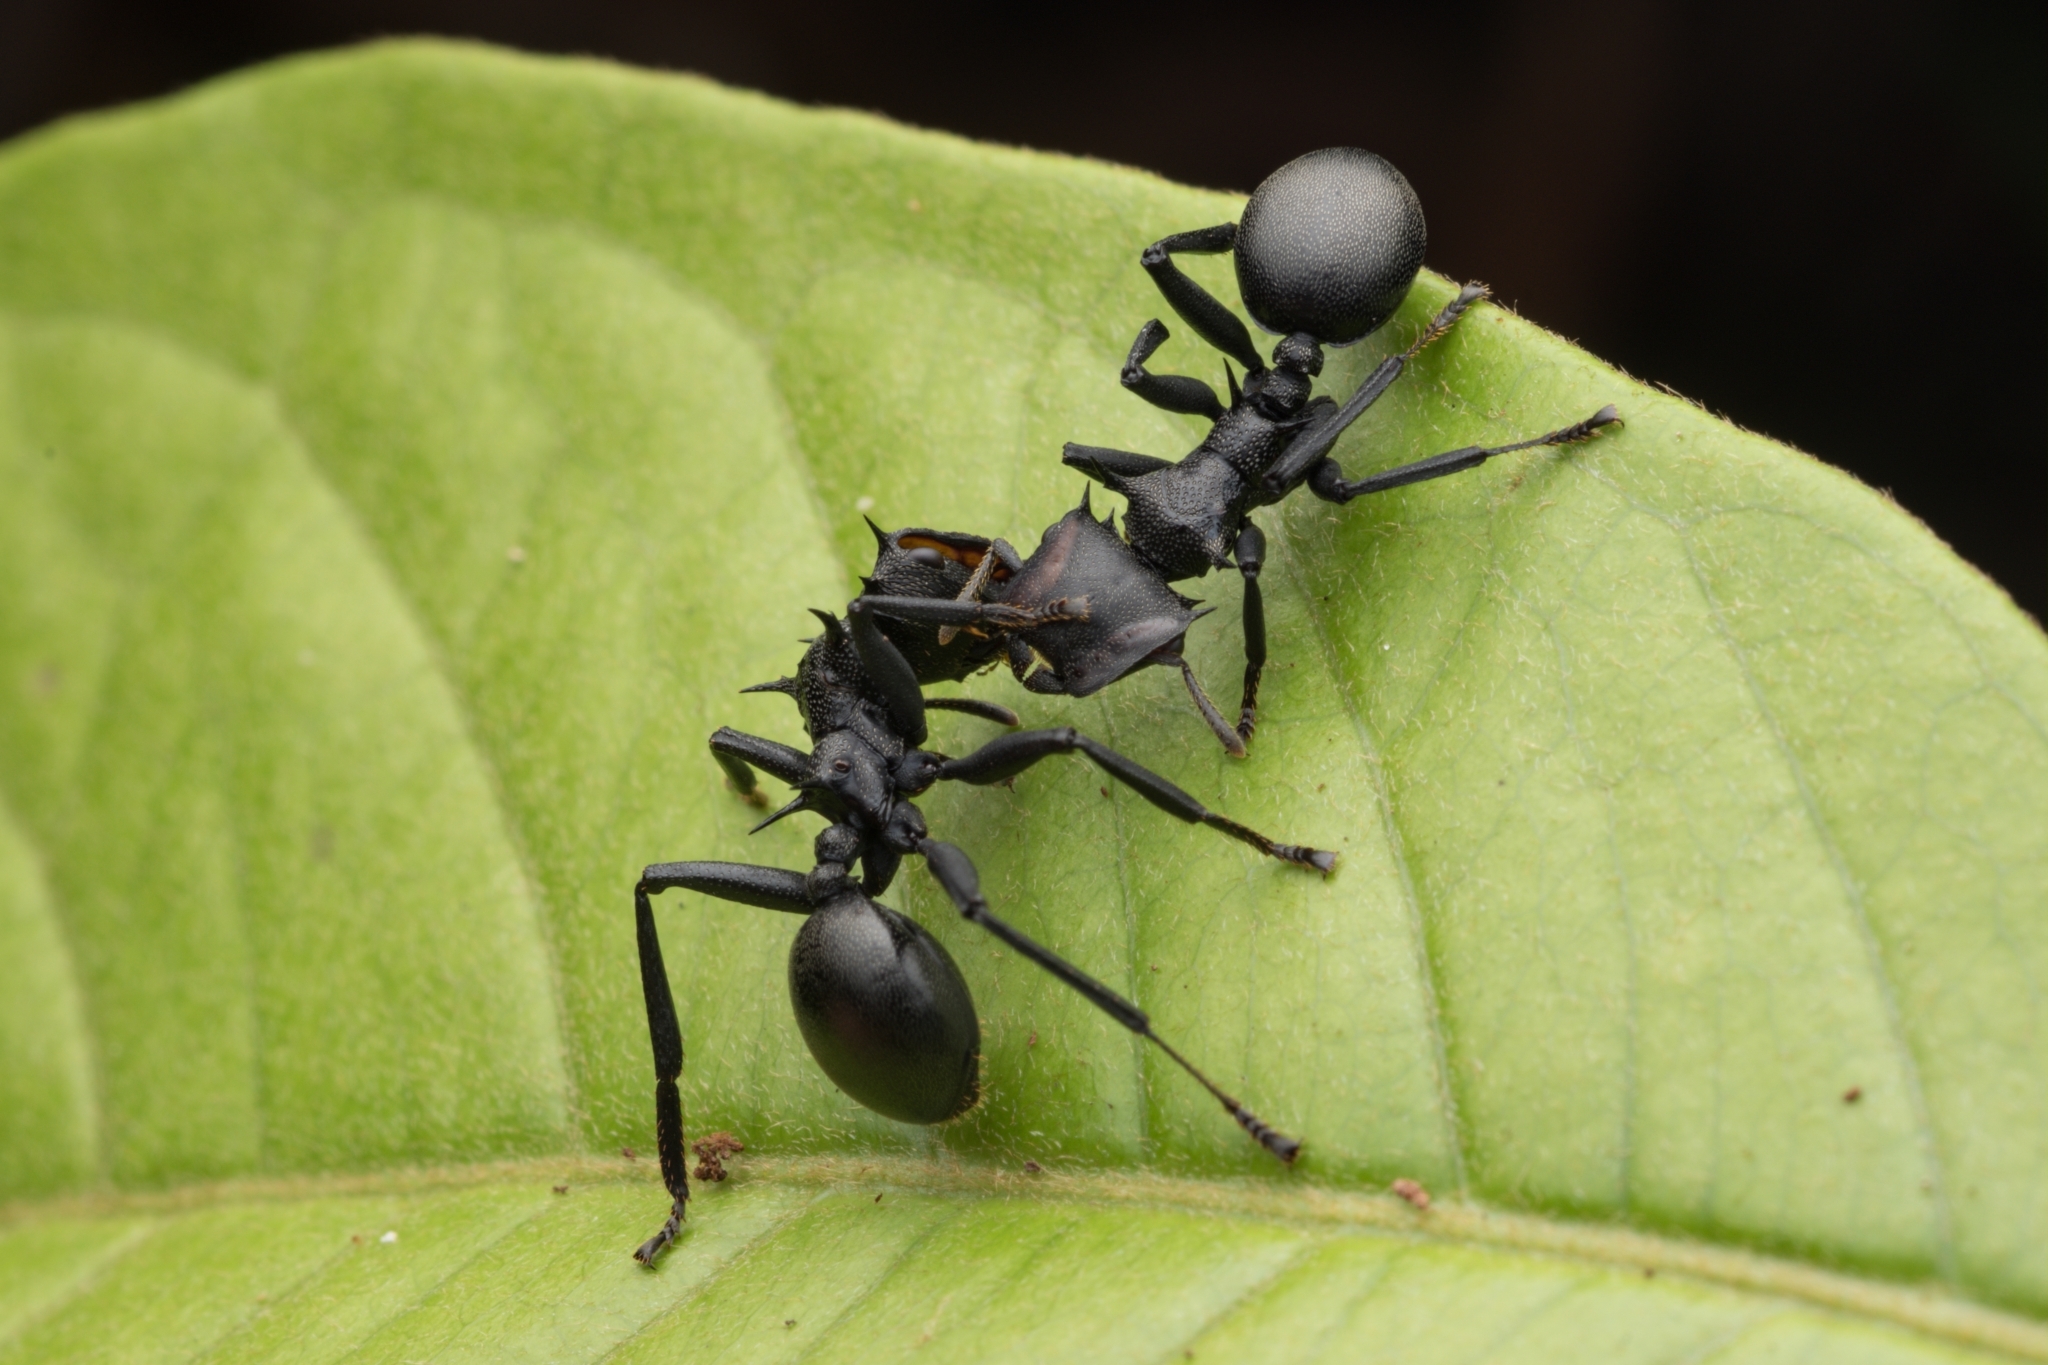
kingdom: Animalia
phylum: Arthropoda
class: Insecta
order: Hymenoptera
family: Formicidae
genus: Cephalotes
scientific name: Cephalotes atratus
